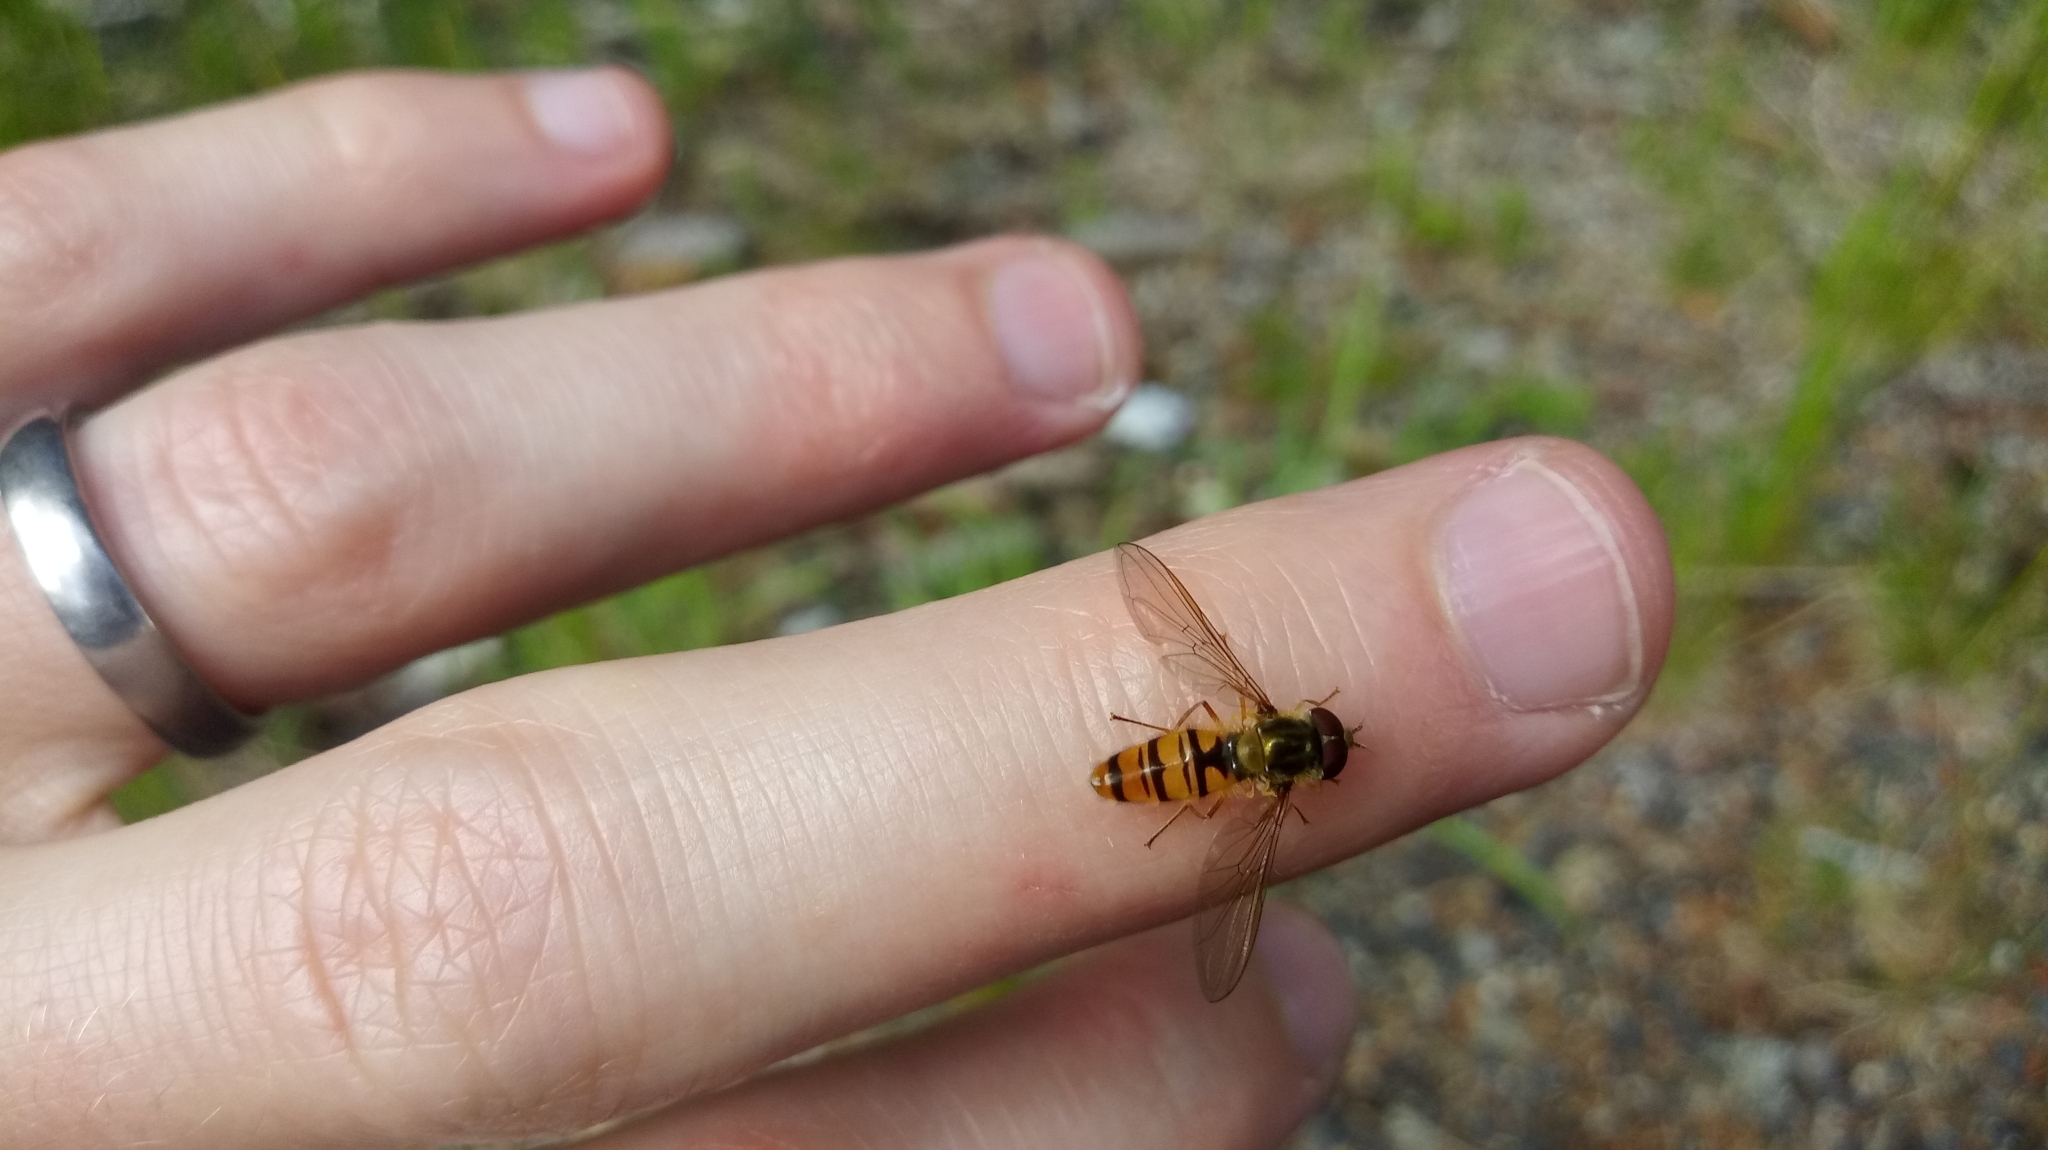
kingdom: Animalia
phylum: Arthropoda
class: Insecta
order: Diptera
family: Syrphidae
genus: Episyrphus
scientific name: Episyrphus balteatus
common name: Marmalade hoverfly
